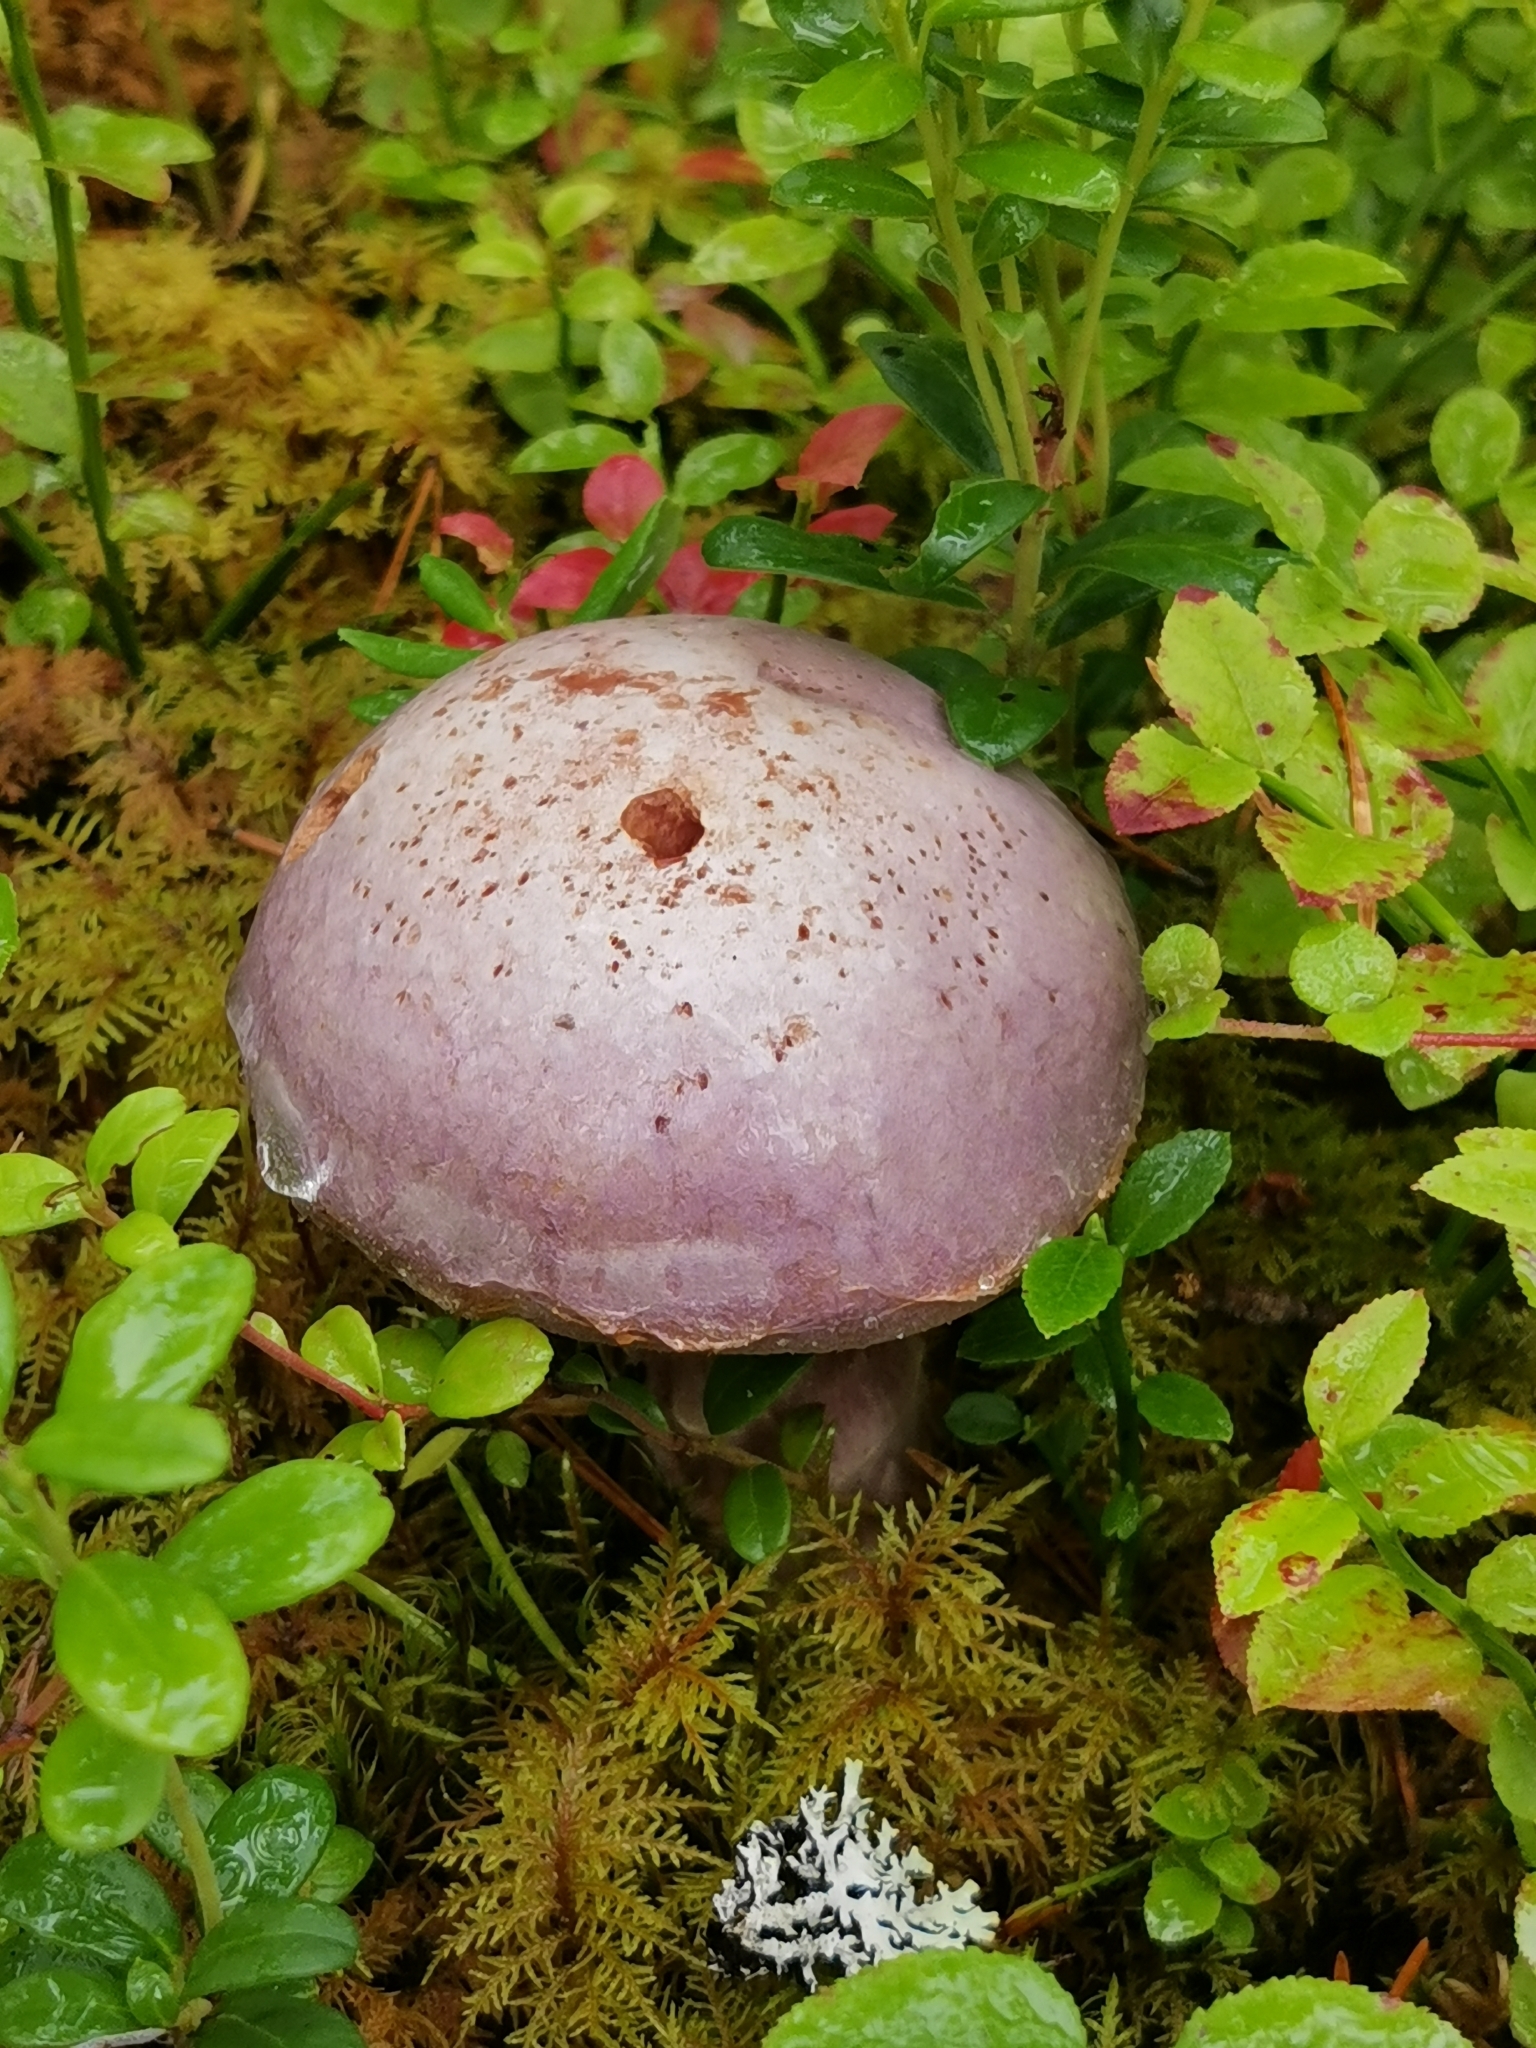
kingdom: Fungi
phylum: Basidiomycota
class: Agaricomycetes
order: Agaricales
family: Cortinariaceae
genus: Cortinarius
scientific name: Cortinarius traganus
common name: Gassy webcap
